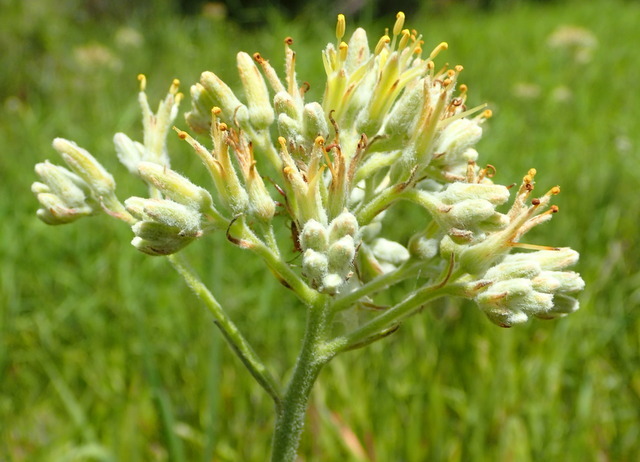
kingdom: Plantae
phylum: Tracheophyta
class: Liliopsida
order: Commelinales
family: Haemodoraceae
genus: Lachnanthes
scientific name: Lachnanthes caroliana
